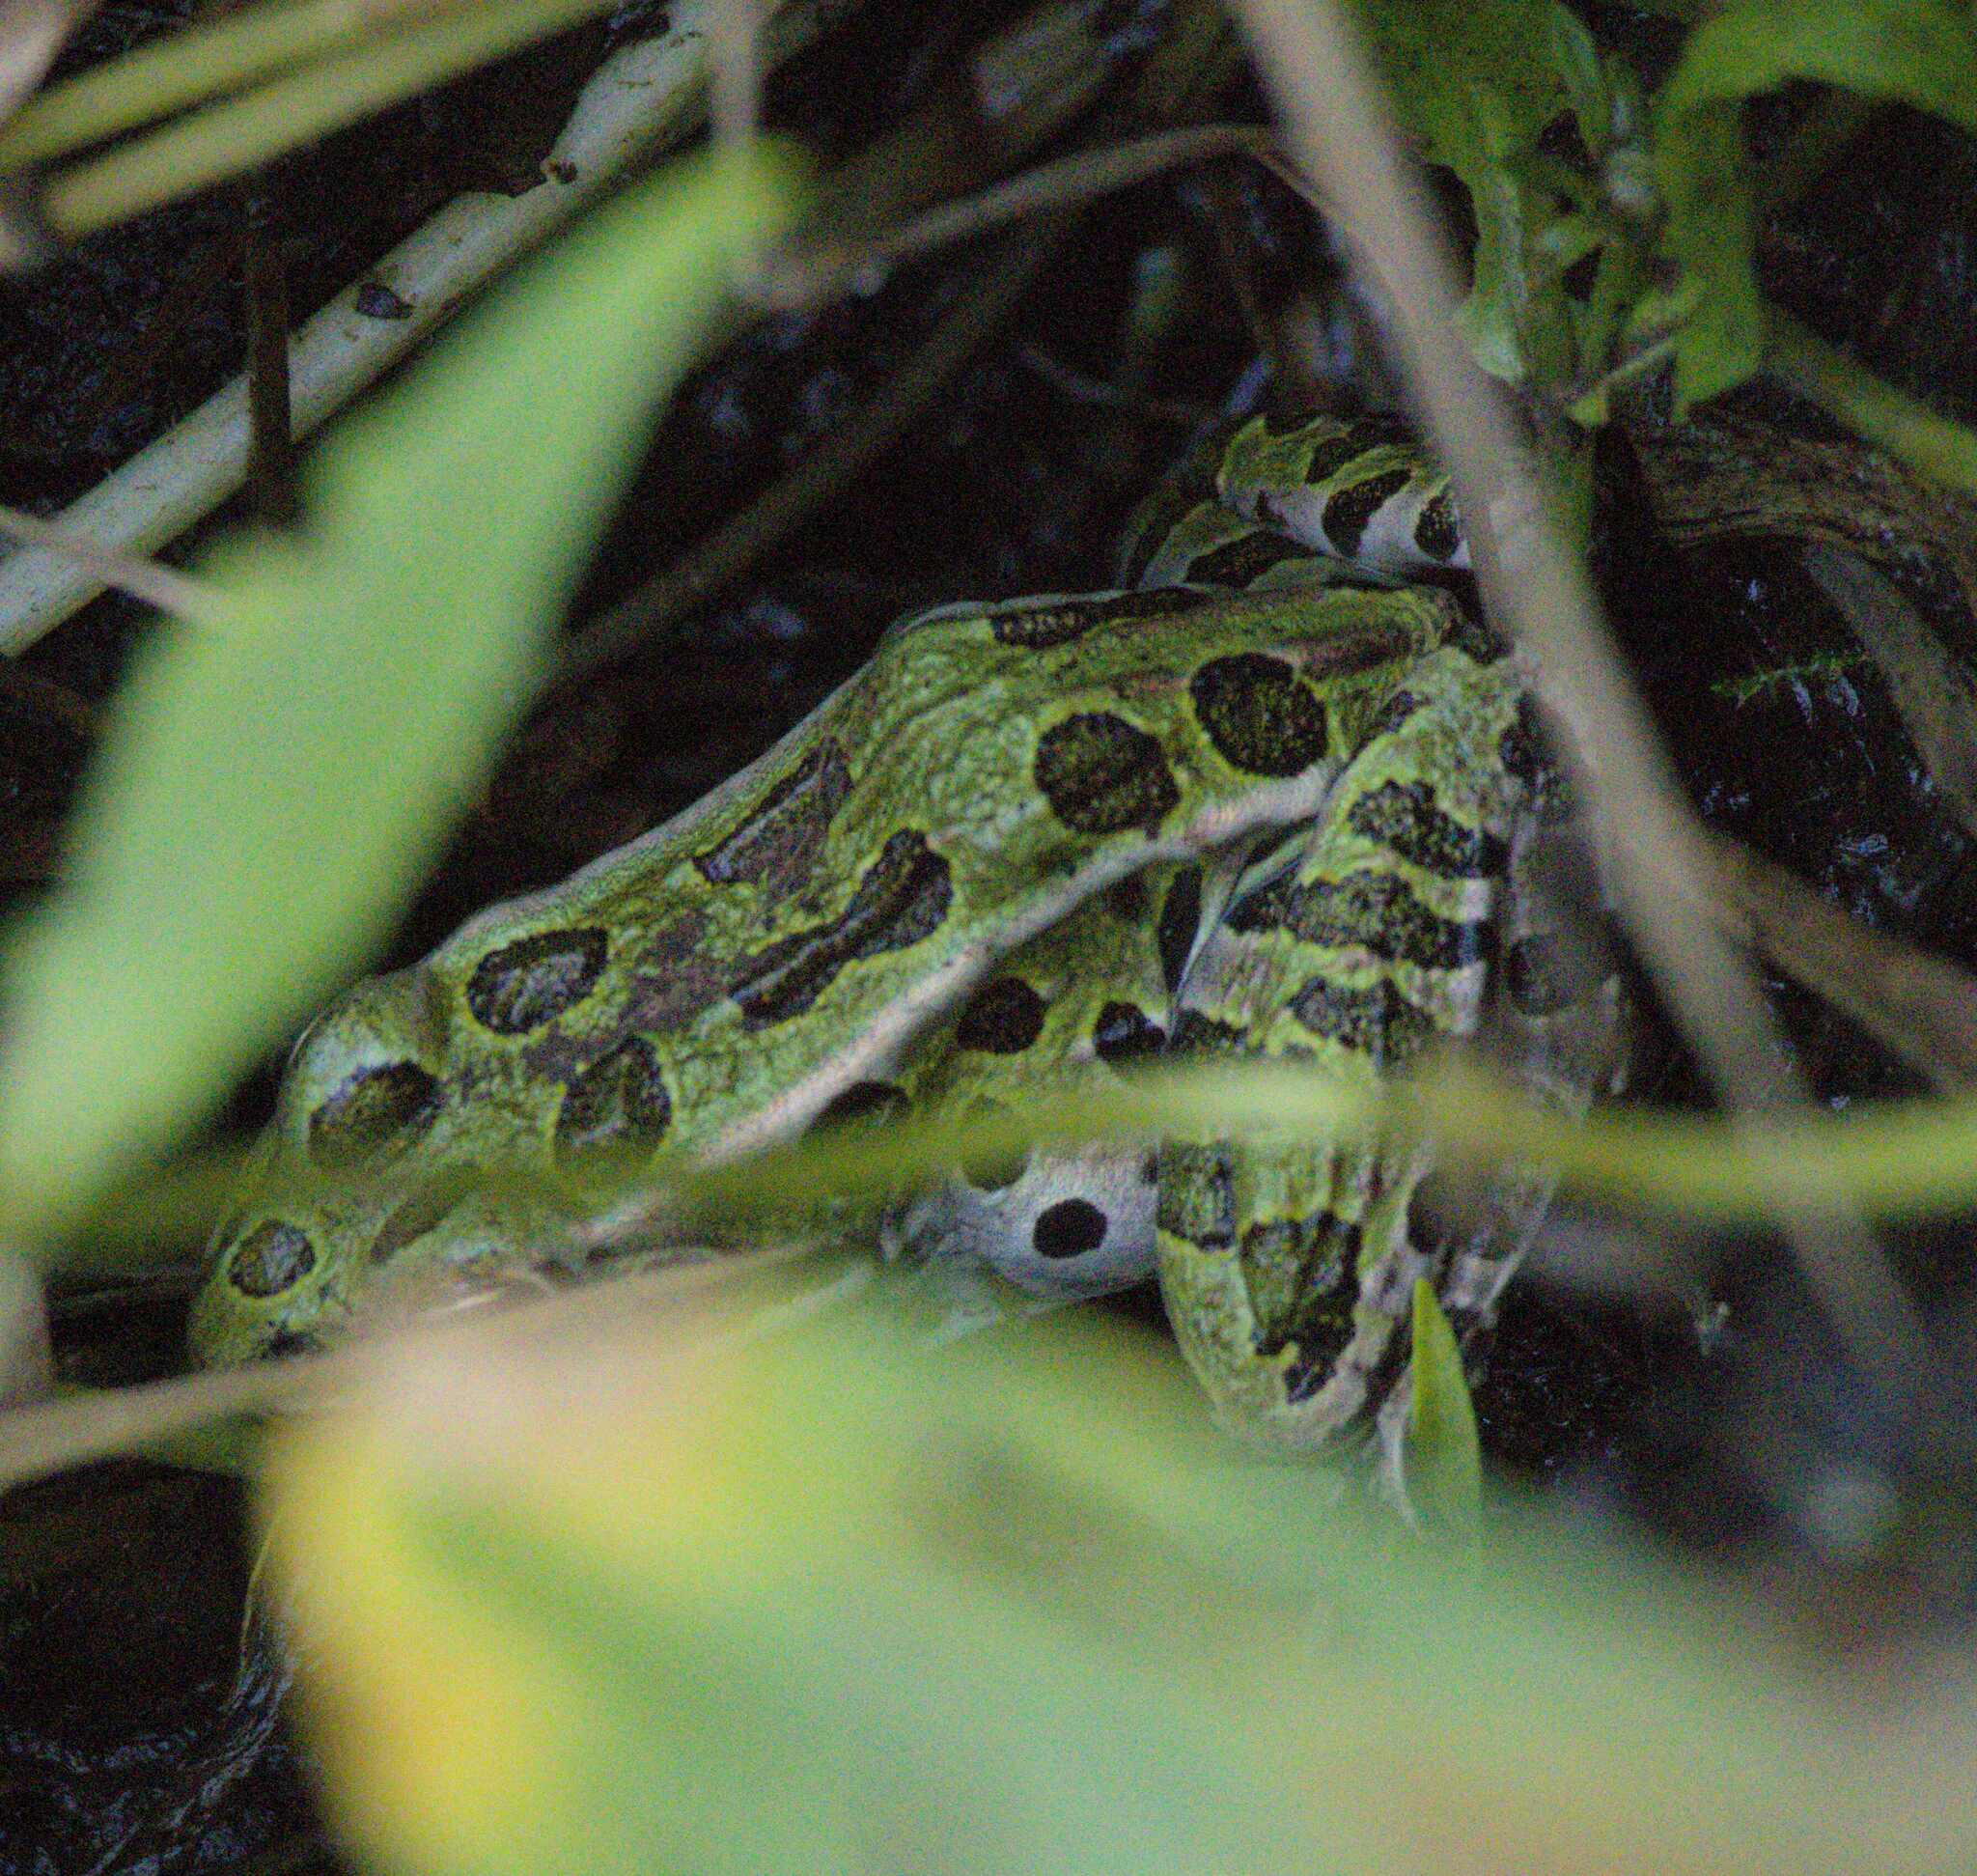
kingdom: Animalia
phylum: Chordata
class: Amphibia
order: Anura
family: Ranidae
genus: Lithobates
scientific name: Lithobates pipiens
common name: Northern leopard frog
